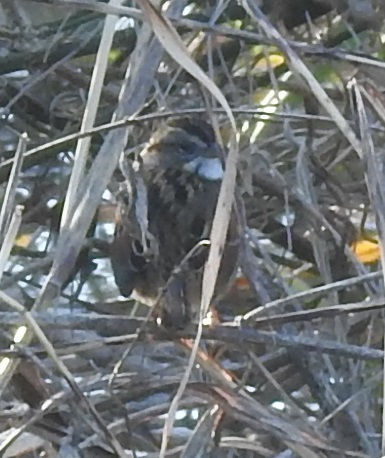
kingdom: Animalia
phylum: Chordata
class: Aves
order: Passeriformes
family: Passerellidae
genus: Melospiza
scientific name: Melospiza georgiana
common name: Swamp sparrow
